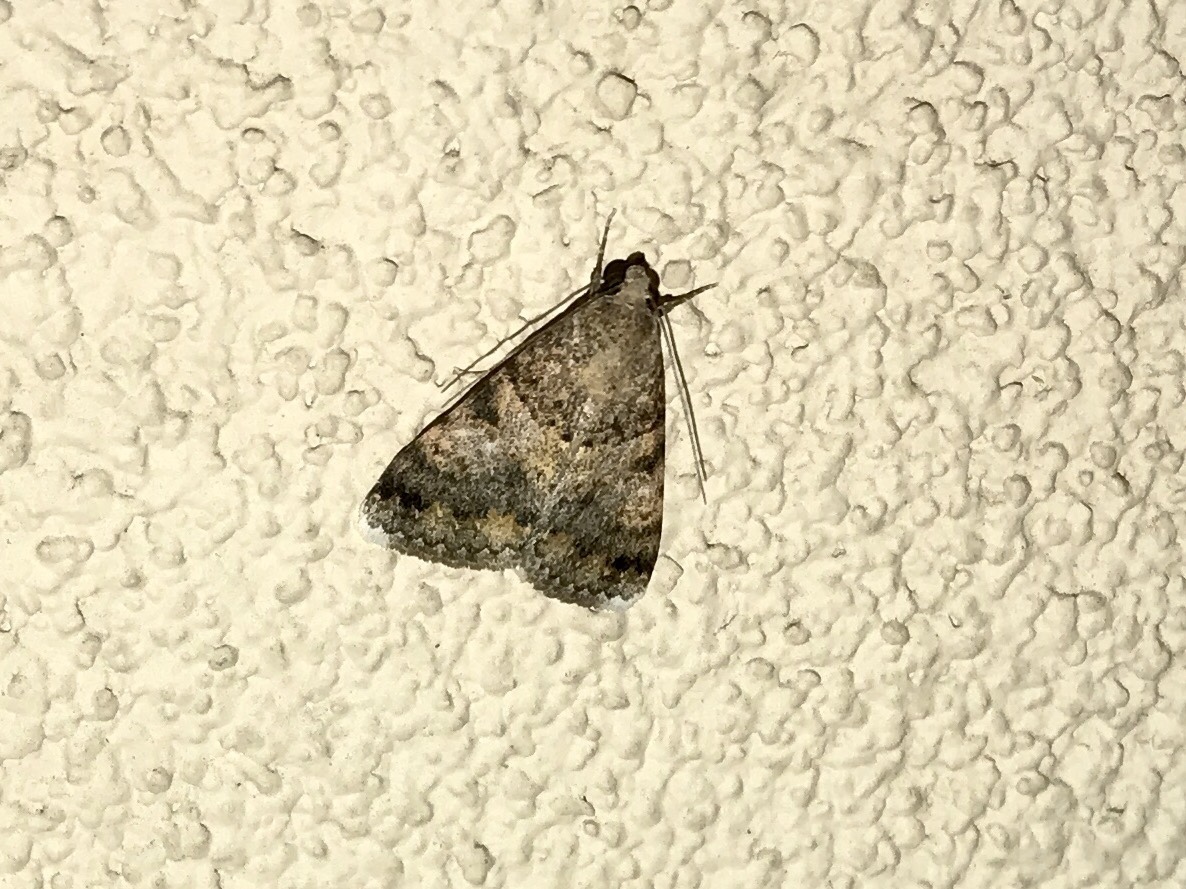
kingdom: Animalia
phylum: Arthropoda
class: Insecta
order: Lepidoptera
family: Erebidae
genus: Melipotis
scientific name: Melipotis jucunda
